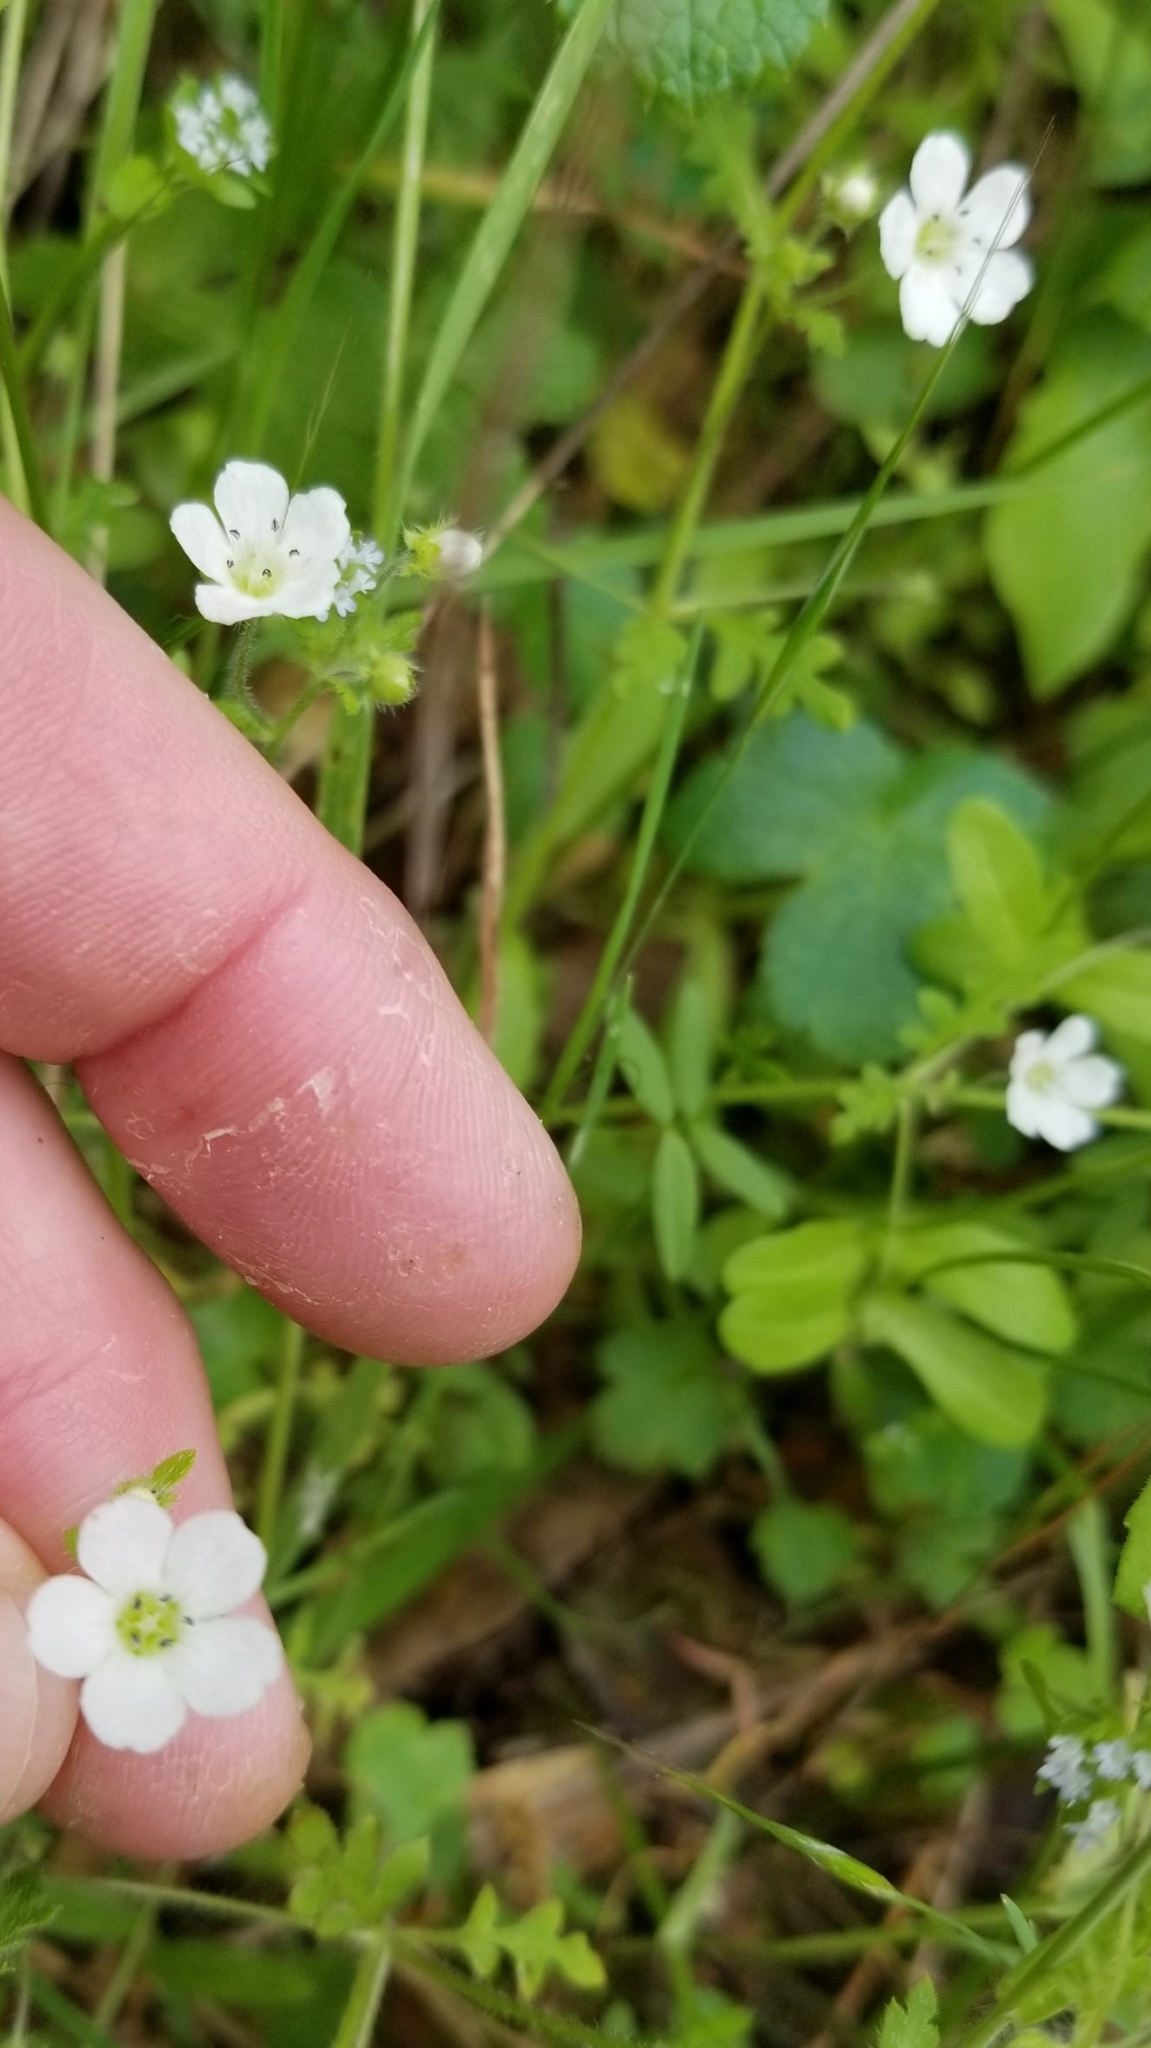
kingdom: Plantae
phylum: Tracheophyta
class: Magnoliopsida
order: Boraginales
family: Hydrophyllaceae
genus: Nemophila
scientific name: Nemophila heterophylla
